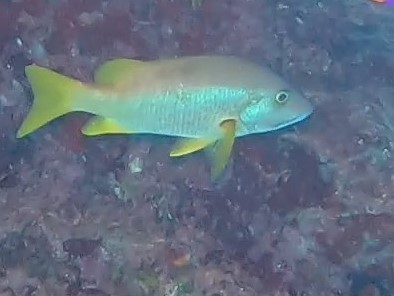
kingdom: Animalia
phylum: Chordata
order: Perciformes
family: Lutjanidae
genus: Lutjanus
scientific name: Lutjanus apodus
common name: Schoolmaster
